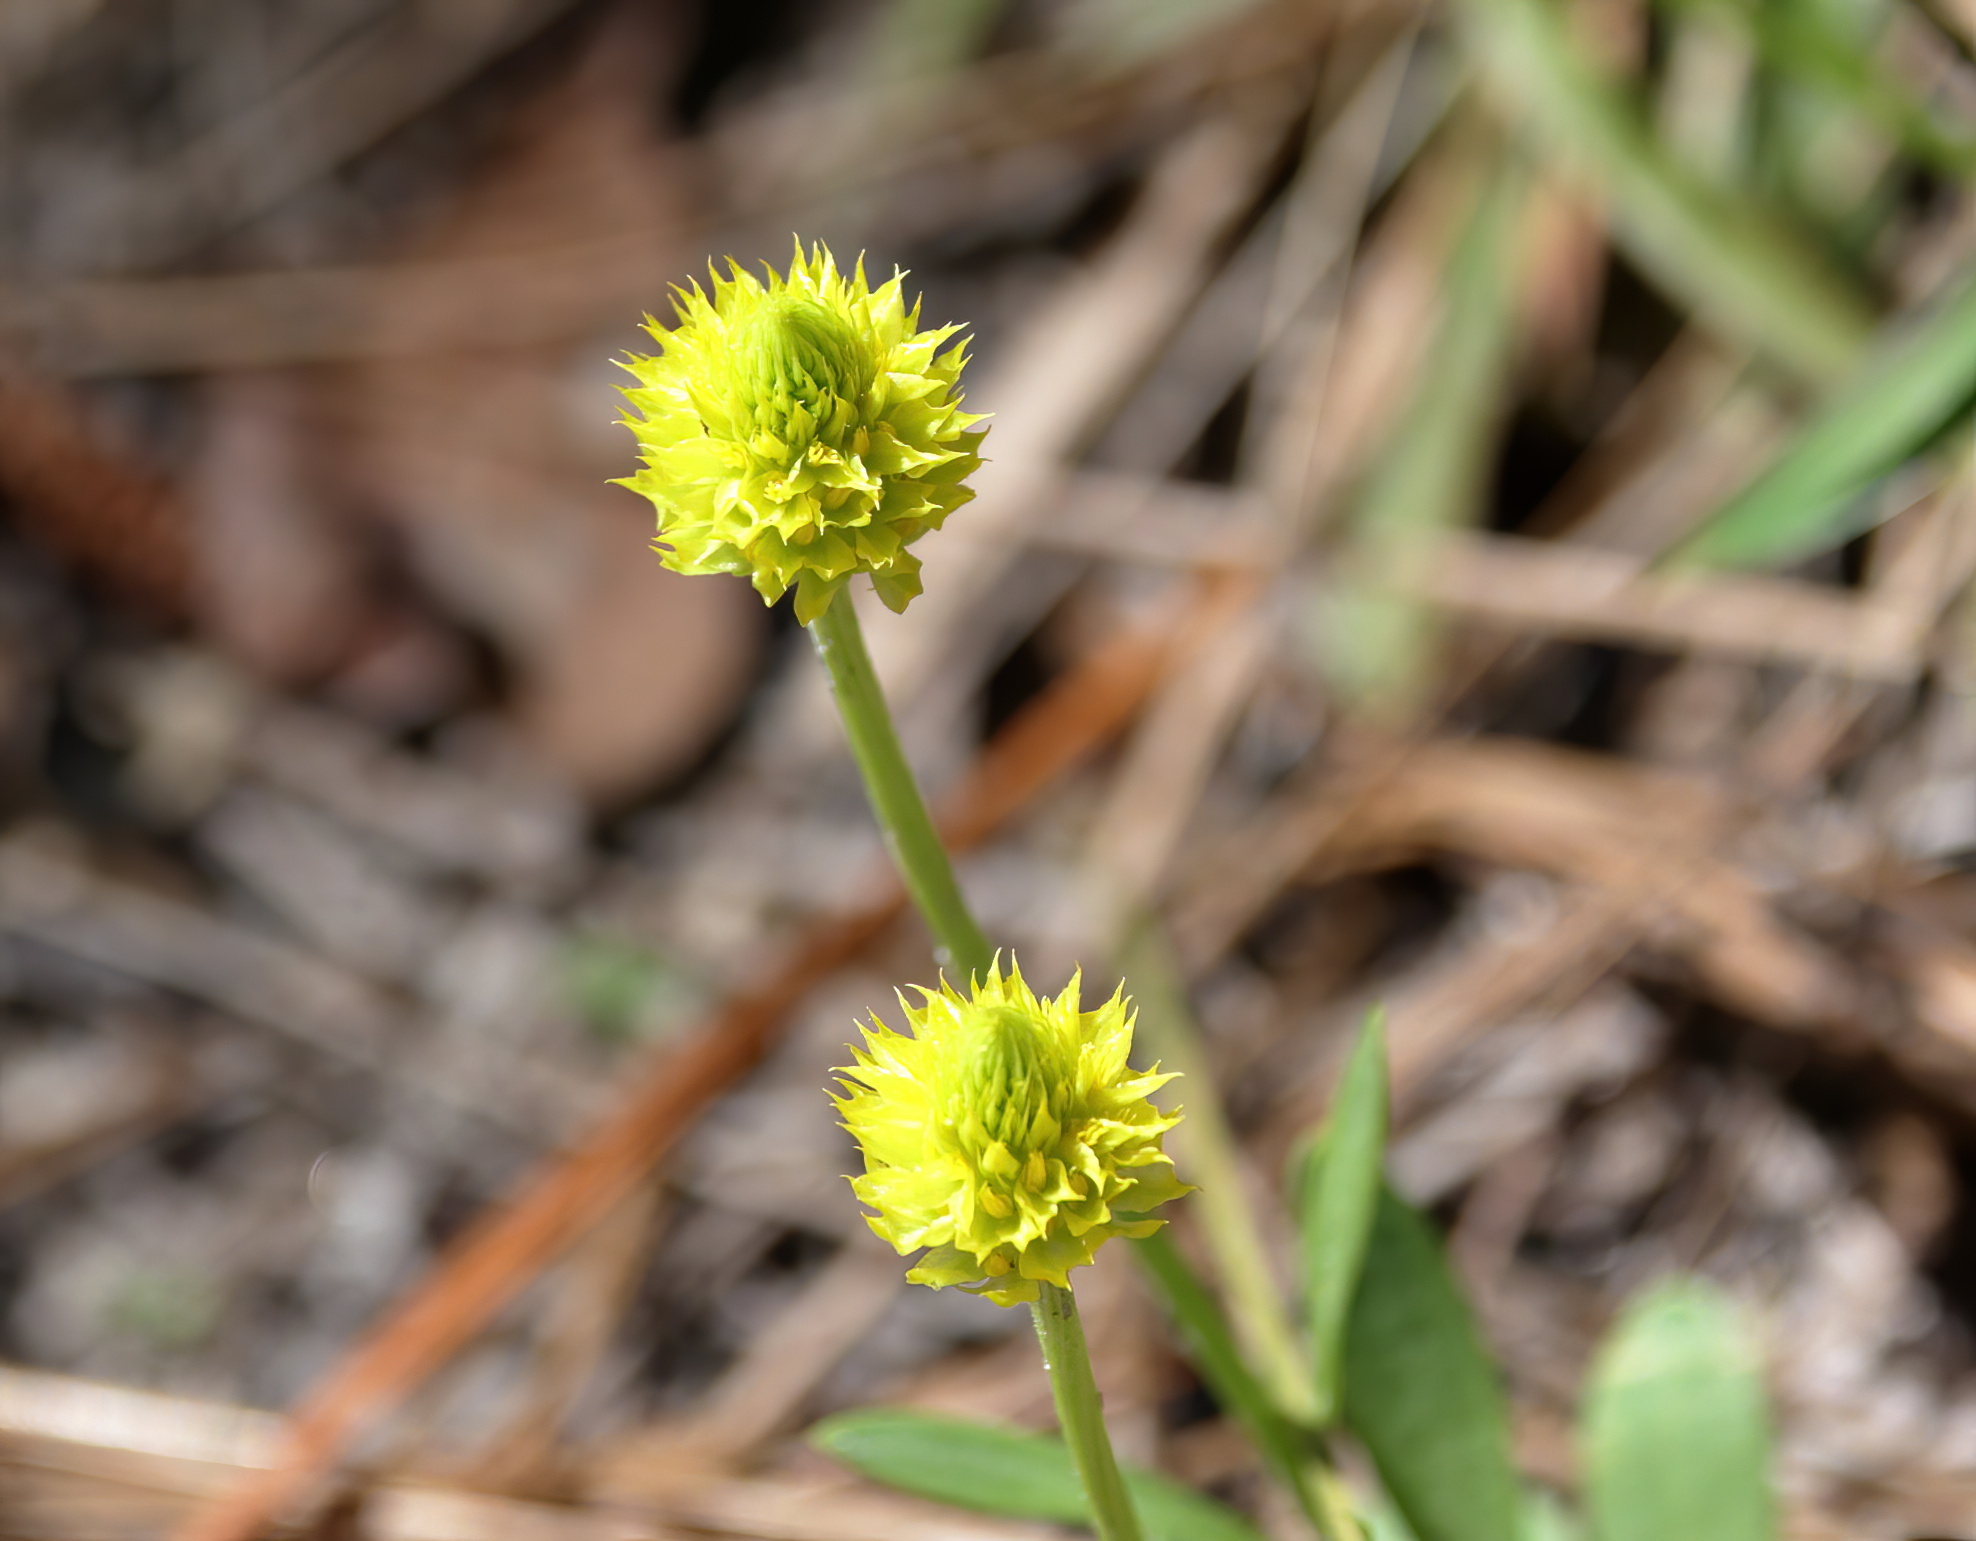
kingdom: Plantae
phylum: Tracheophyta
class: Magnoliopsida
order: Fabales
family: Polygalaceae
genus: Polygala
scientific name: Polygala nana
